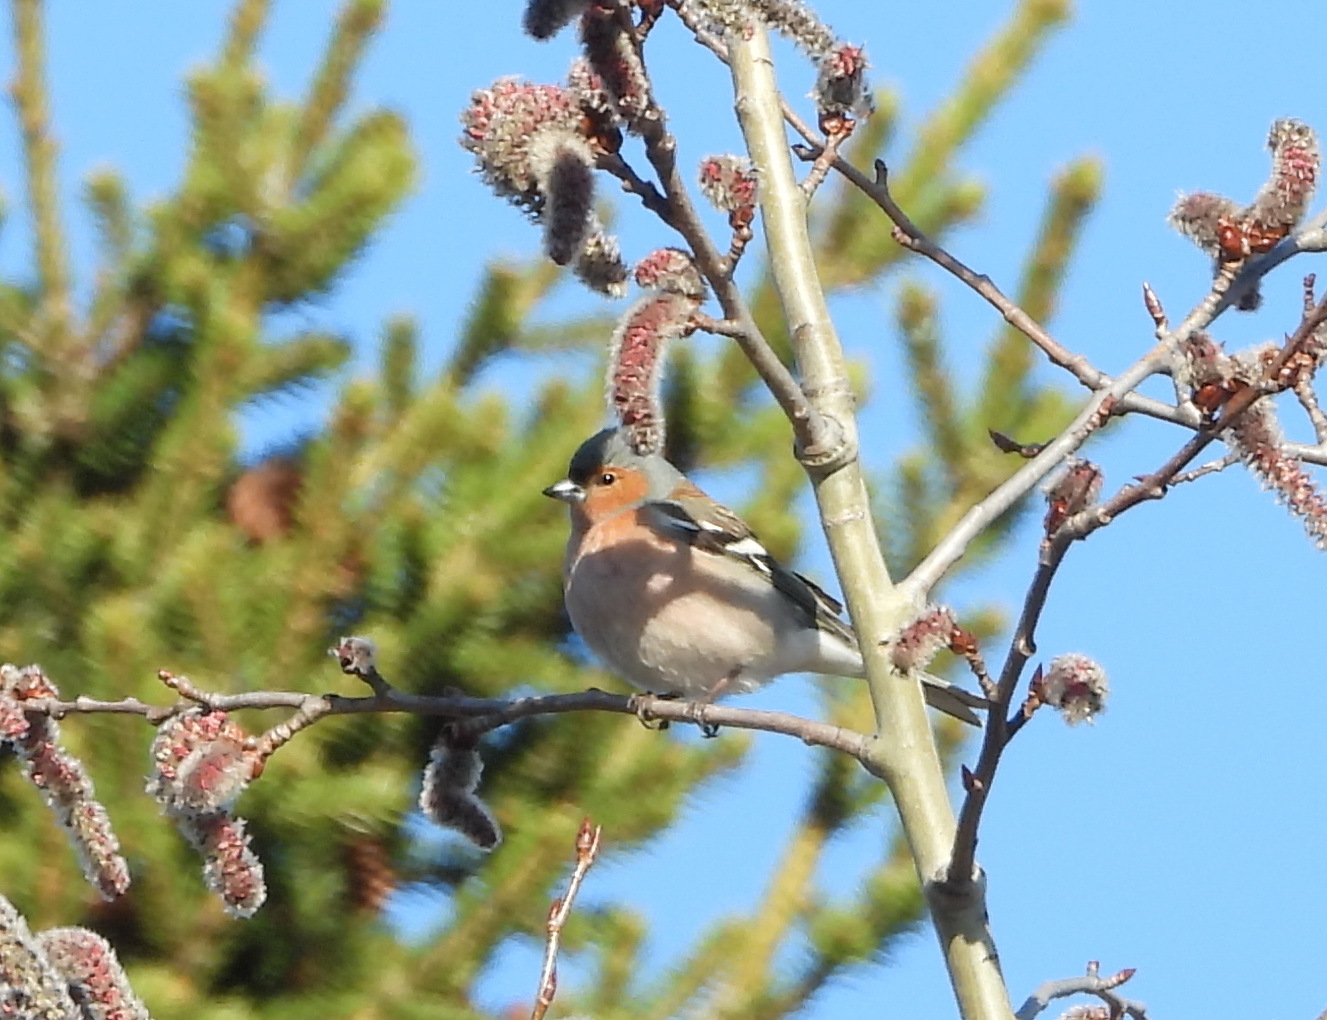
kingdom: Animalia
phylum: Chordata
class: Aves
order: Passeriformes
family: Fringillidae
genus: Fringilla
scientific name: Fringilla coelebs
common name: Common chaffinch
